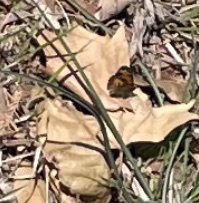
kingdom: Animalia
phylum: Arthropoda
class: Insecta
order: Lepidoptera
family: Nymphalidae
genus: Phyciodes
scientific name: Phyciodes tharos
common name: Pearl crescent
